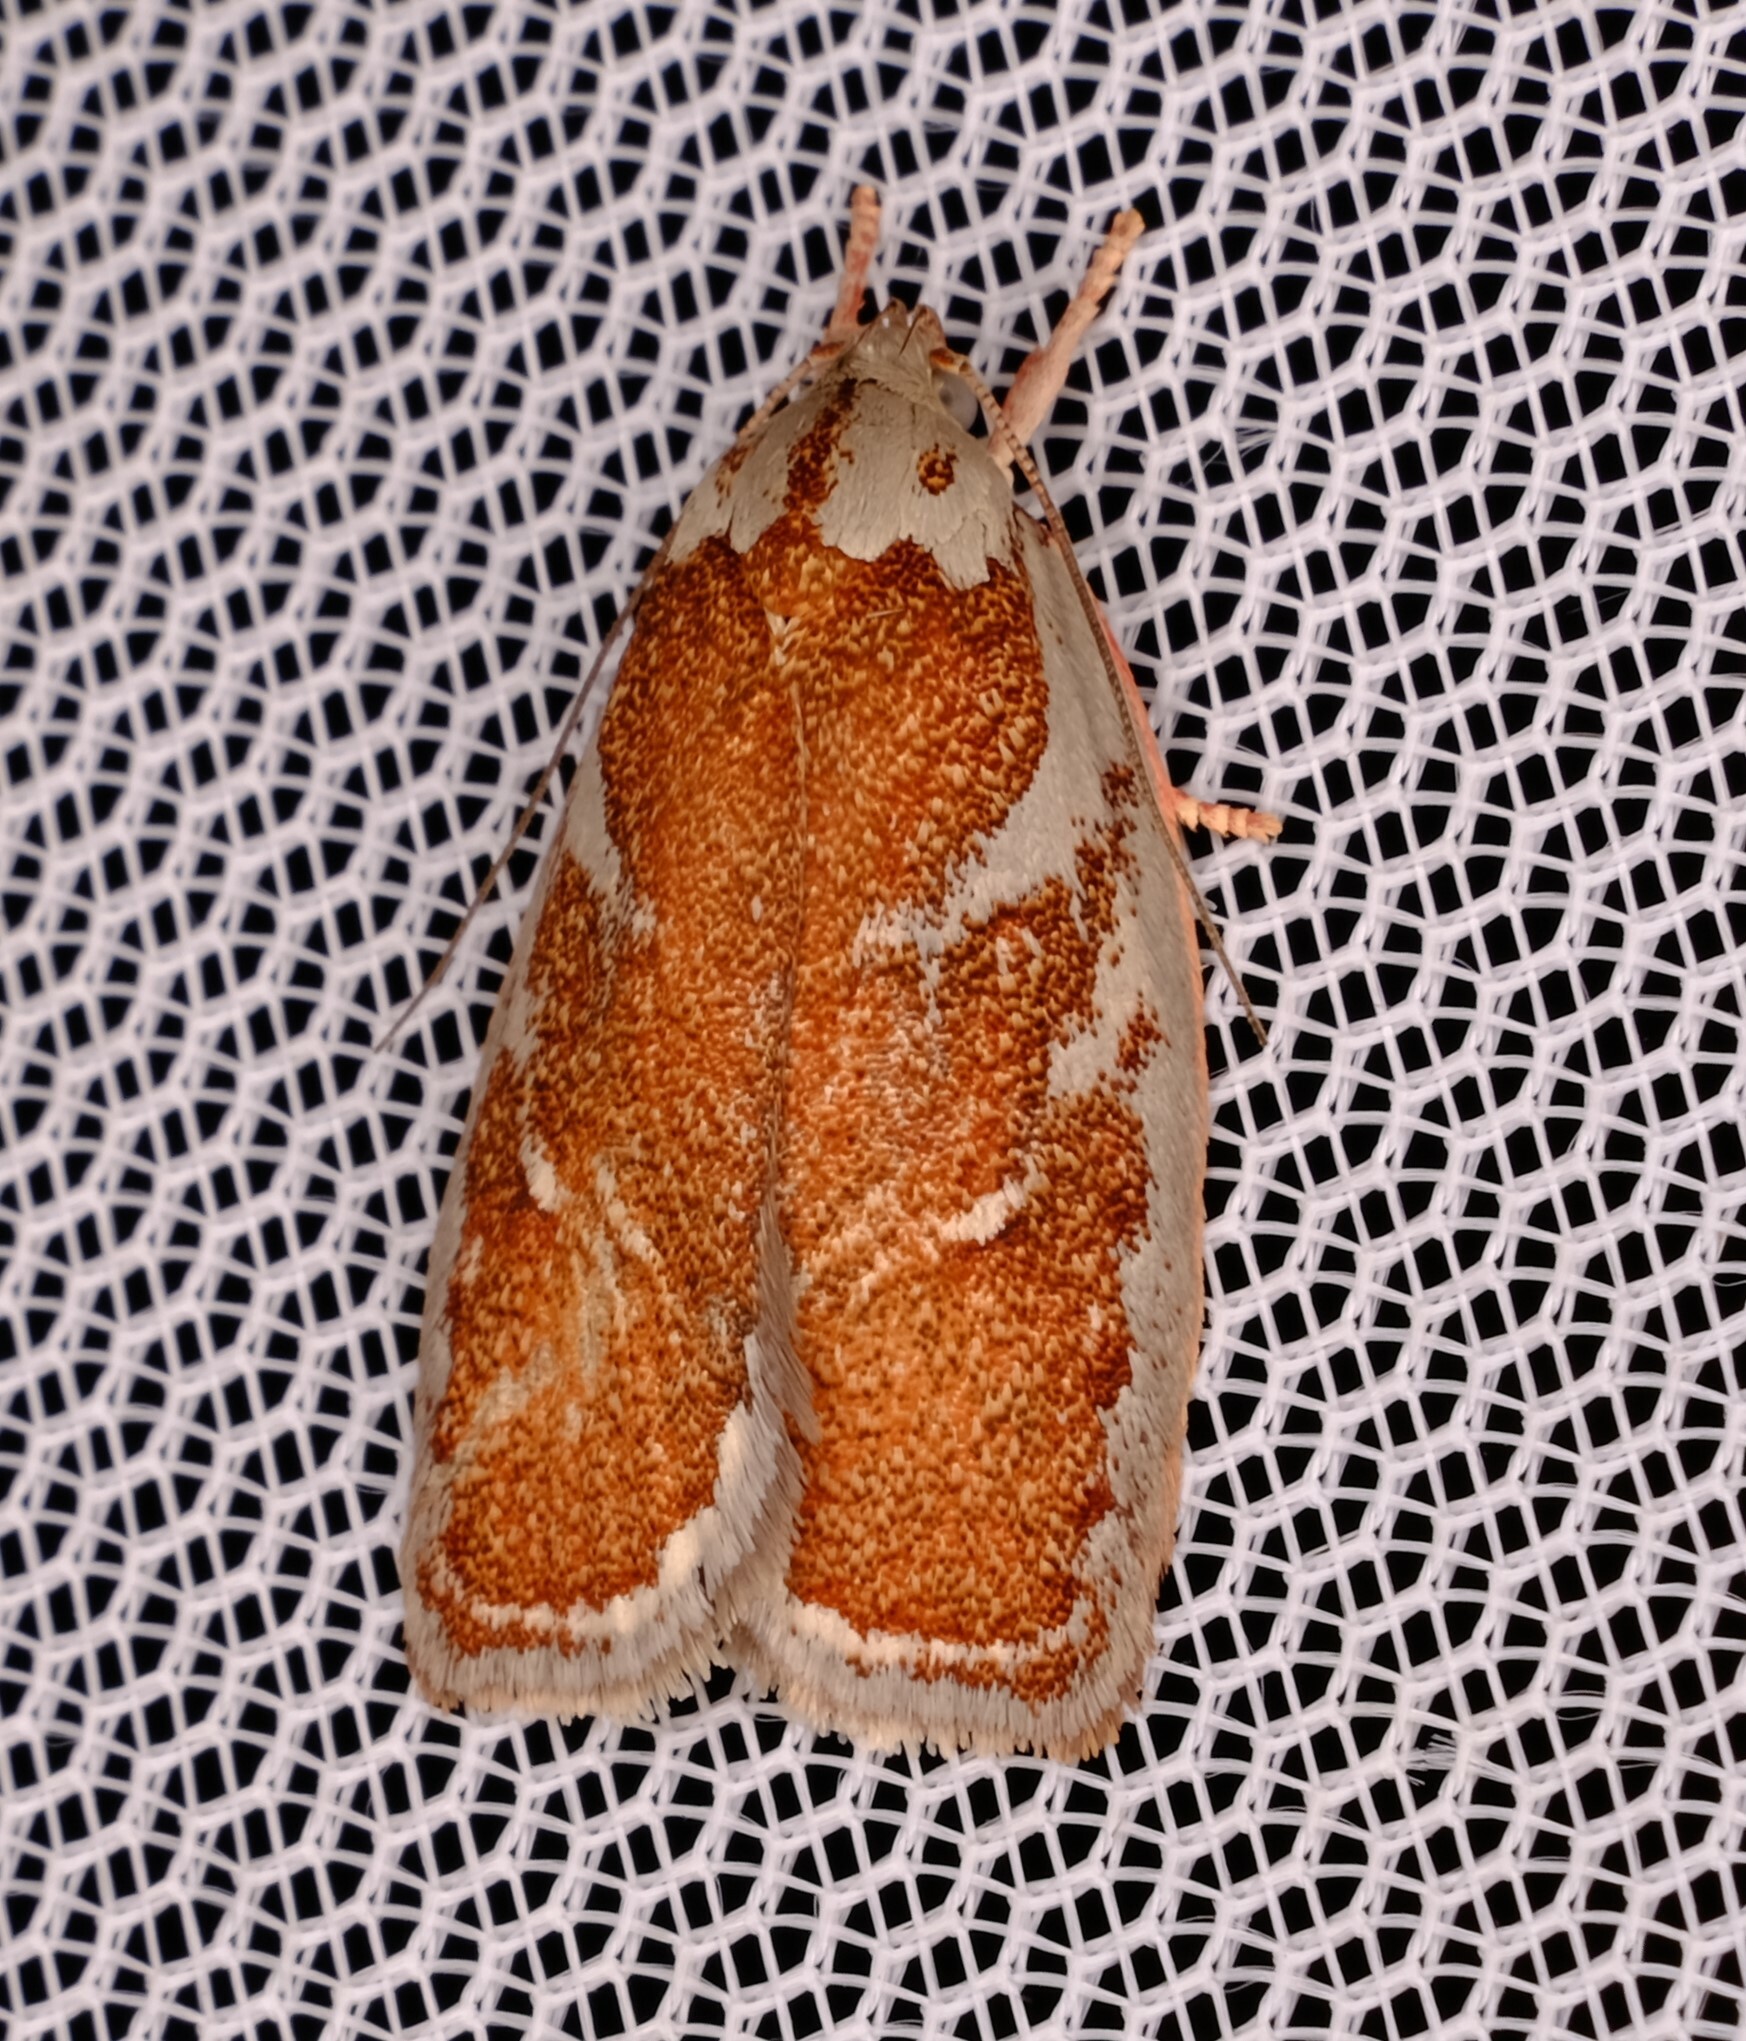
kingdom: Animalia
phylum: Arthropoda
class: Insecta
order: Lepidoptera
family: Oecophoridae
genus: Euchaetis
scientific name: Euchaetis rhizobola
